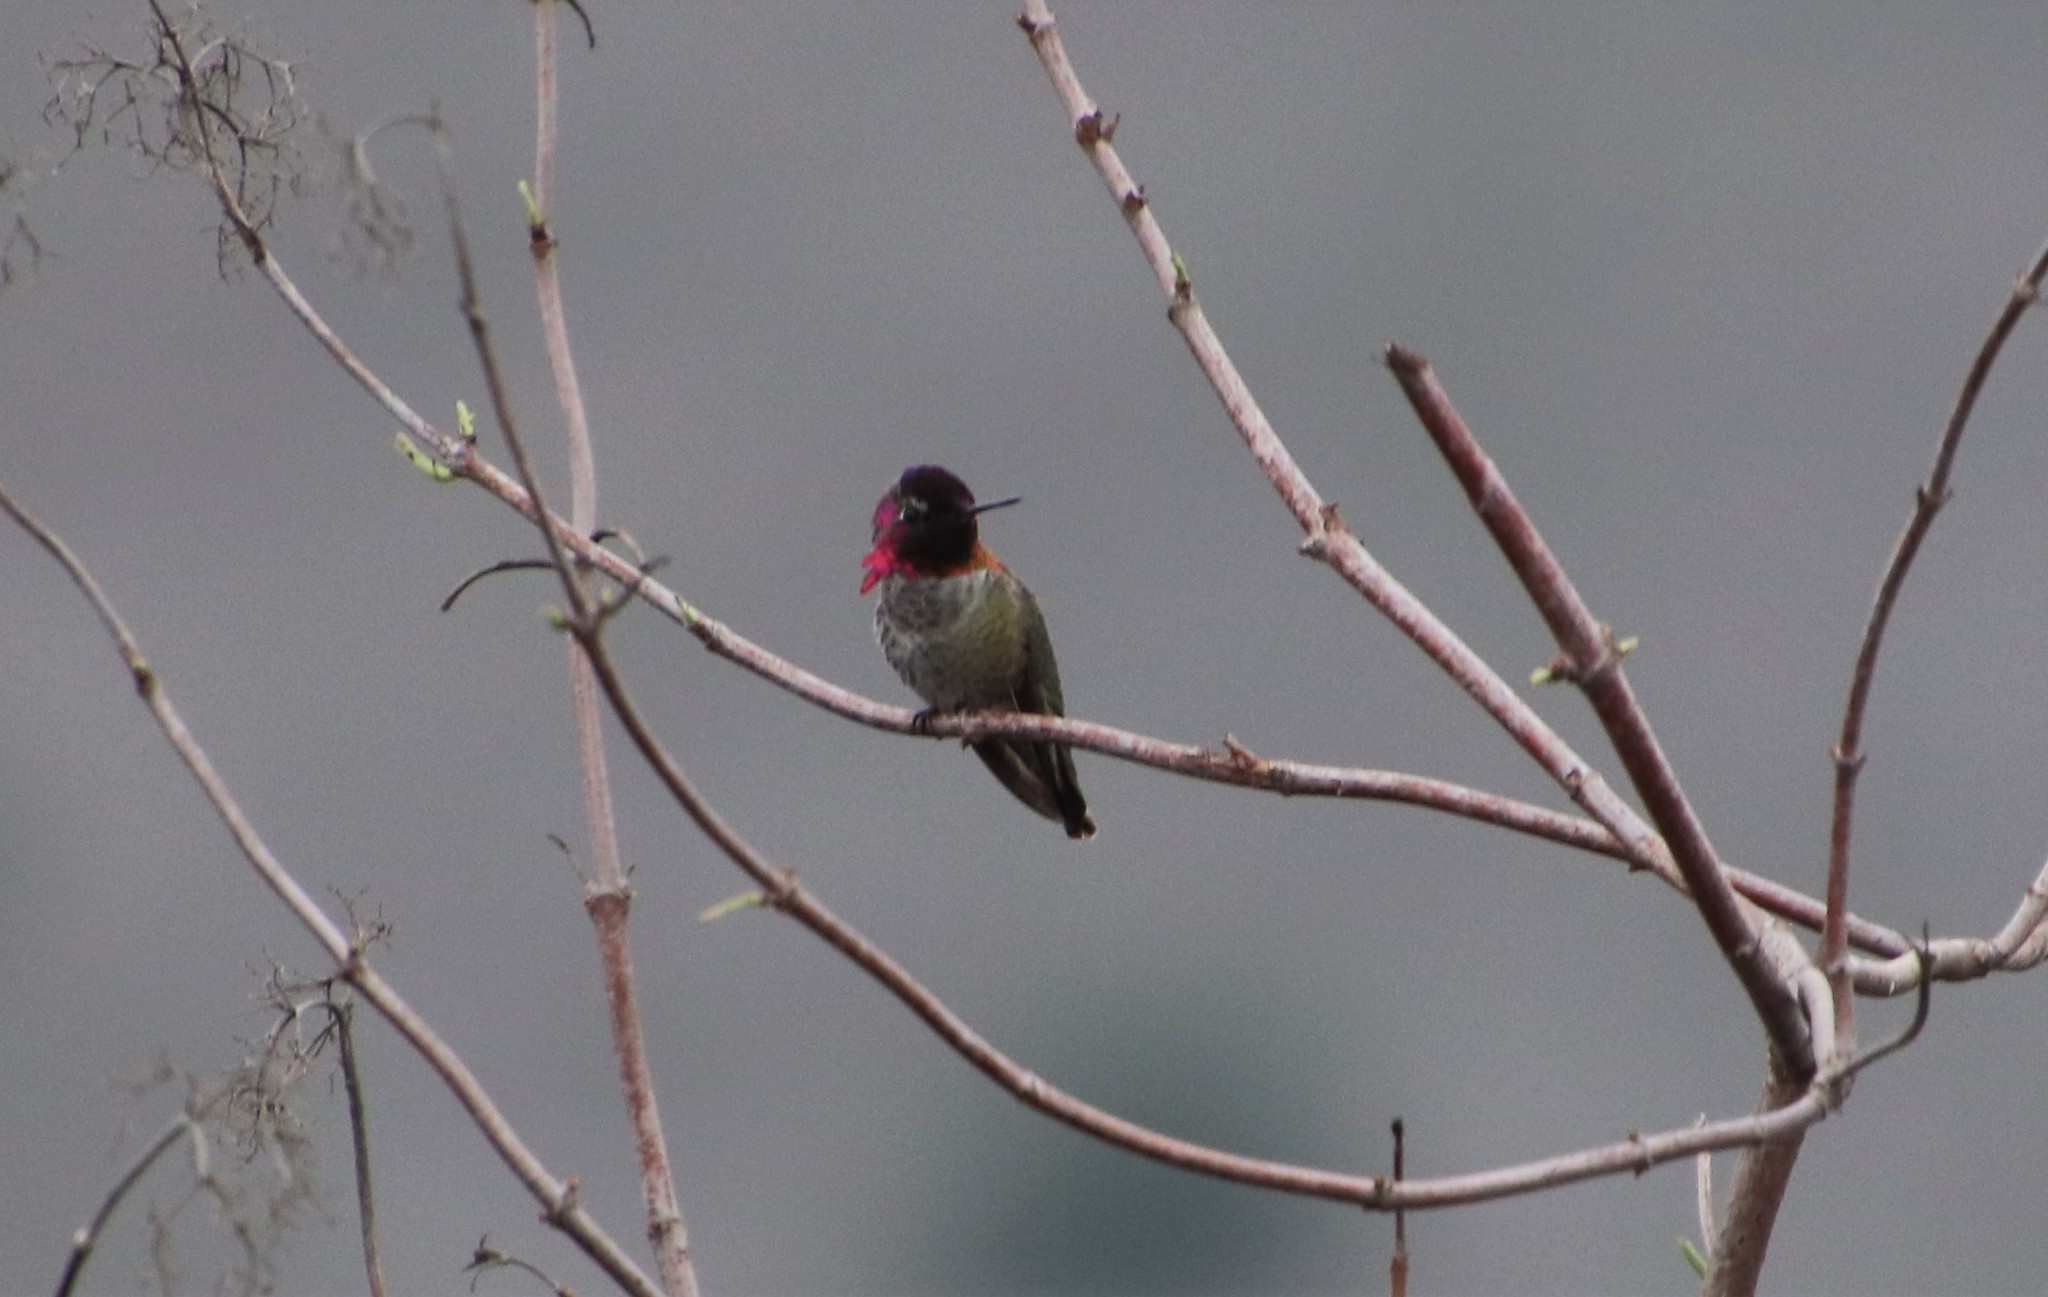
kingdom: Animalia
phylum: Chordata
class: Aves
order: Apodiformes
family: Trochilidae
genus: Calypte
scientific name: Calypte anna
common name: Anna's hummingbird
